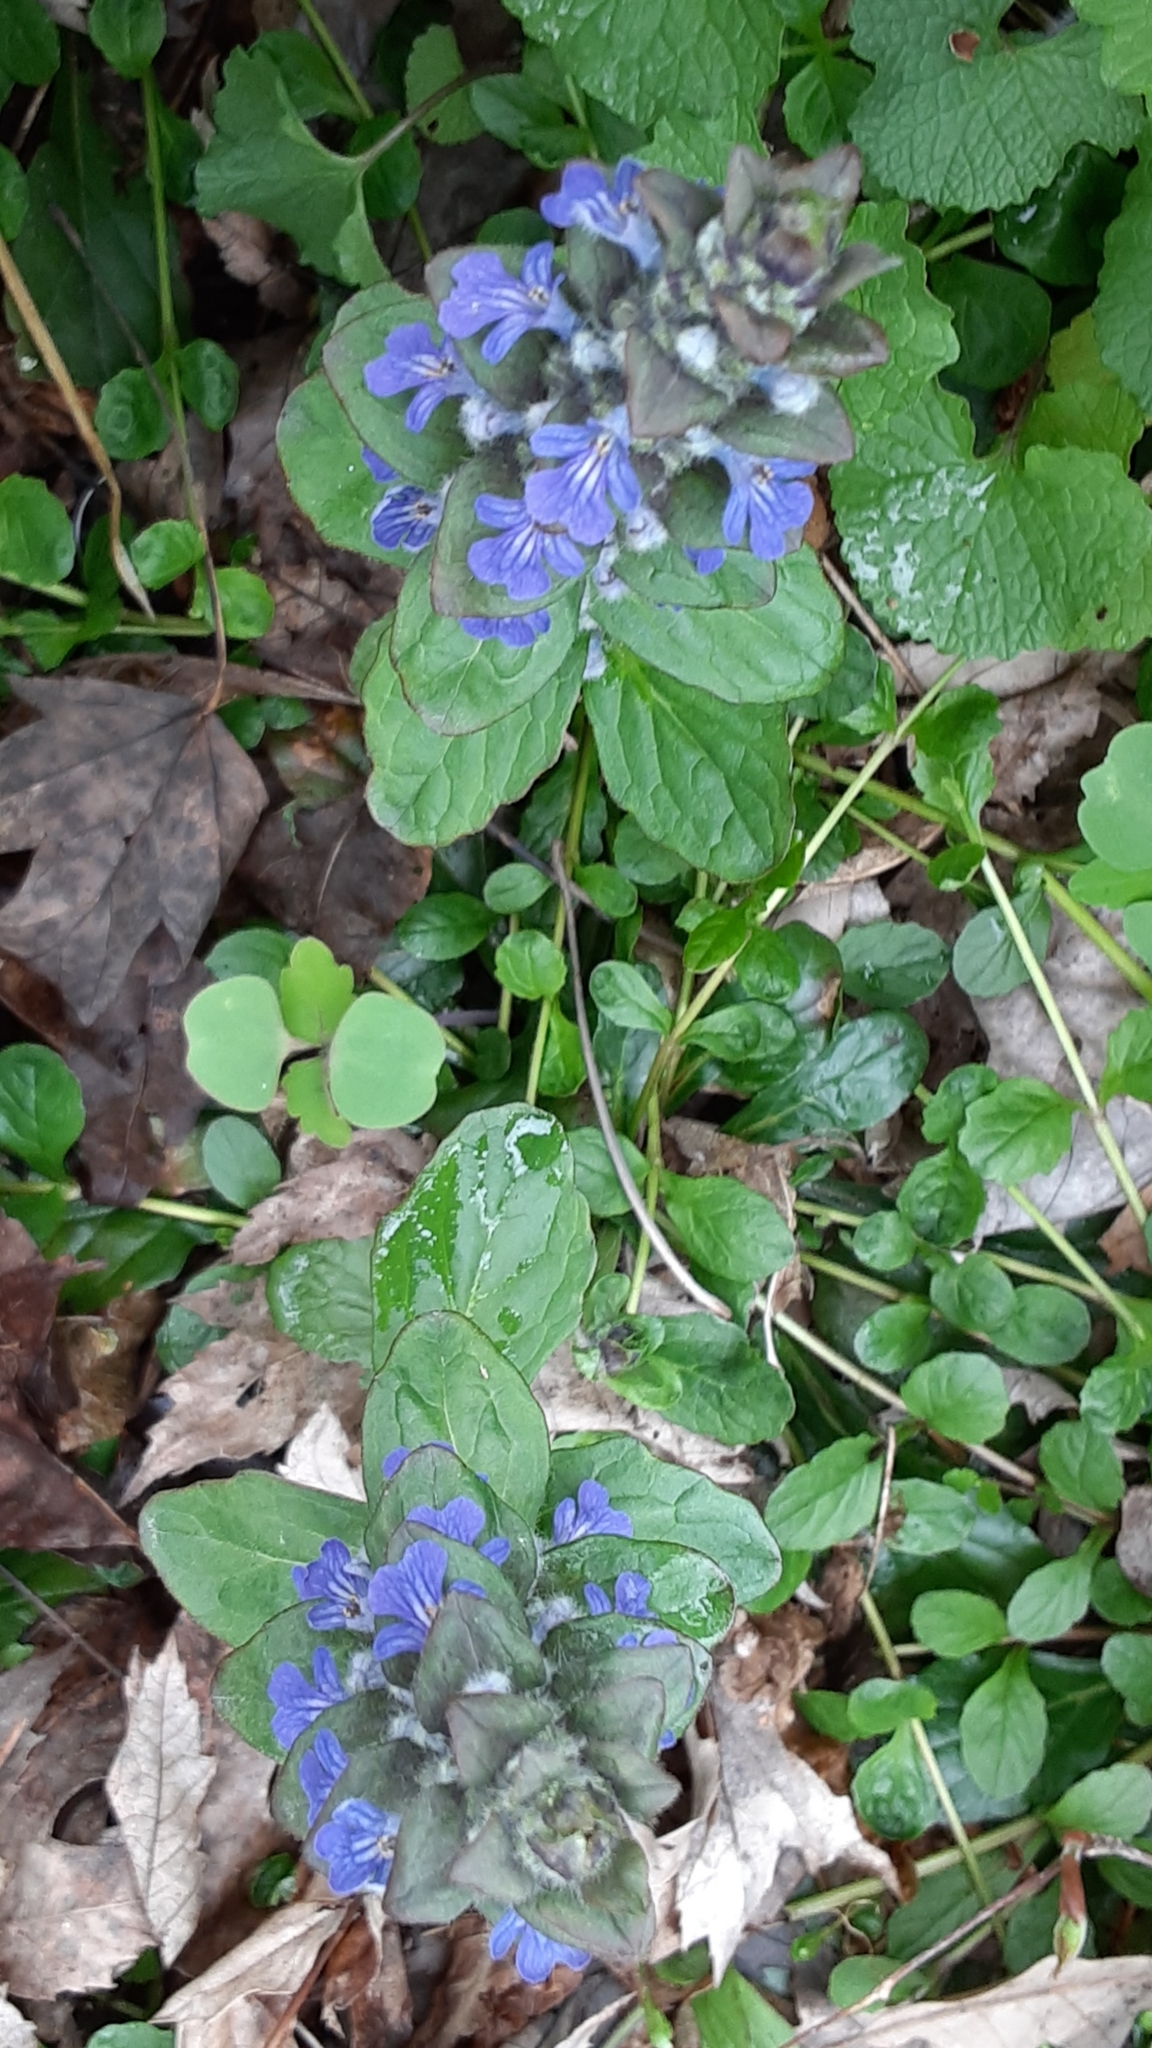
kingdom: Plantae
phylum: Tracheophyta
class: Magnoliopsida
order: Lamiales
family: Lamiaceae
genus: Ajuga
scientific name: Ajuga reptans
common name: Bugle
